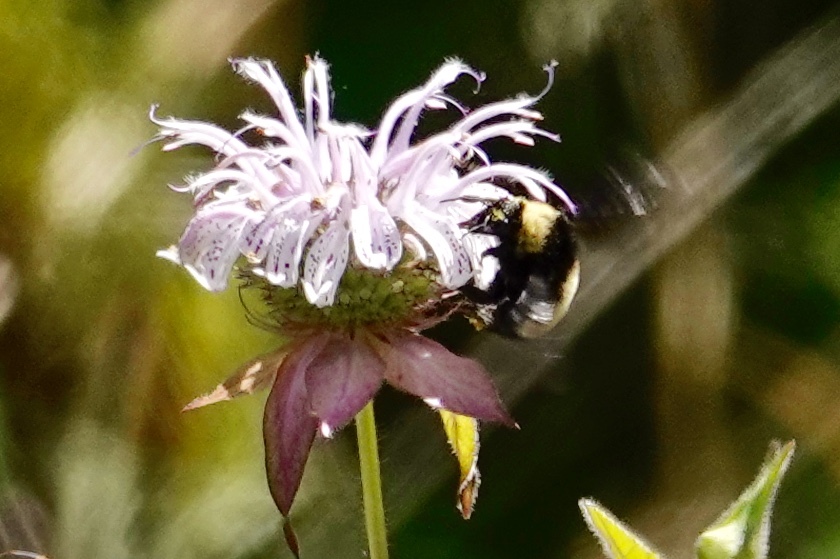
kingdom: Animalia
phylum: Arthropoda
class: Insecta
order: Hymenoptera
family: Apidae
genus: Bombus
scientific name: Bombus pensylvanicus
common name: Bumble bee
